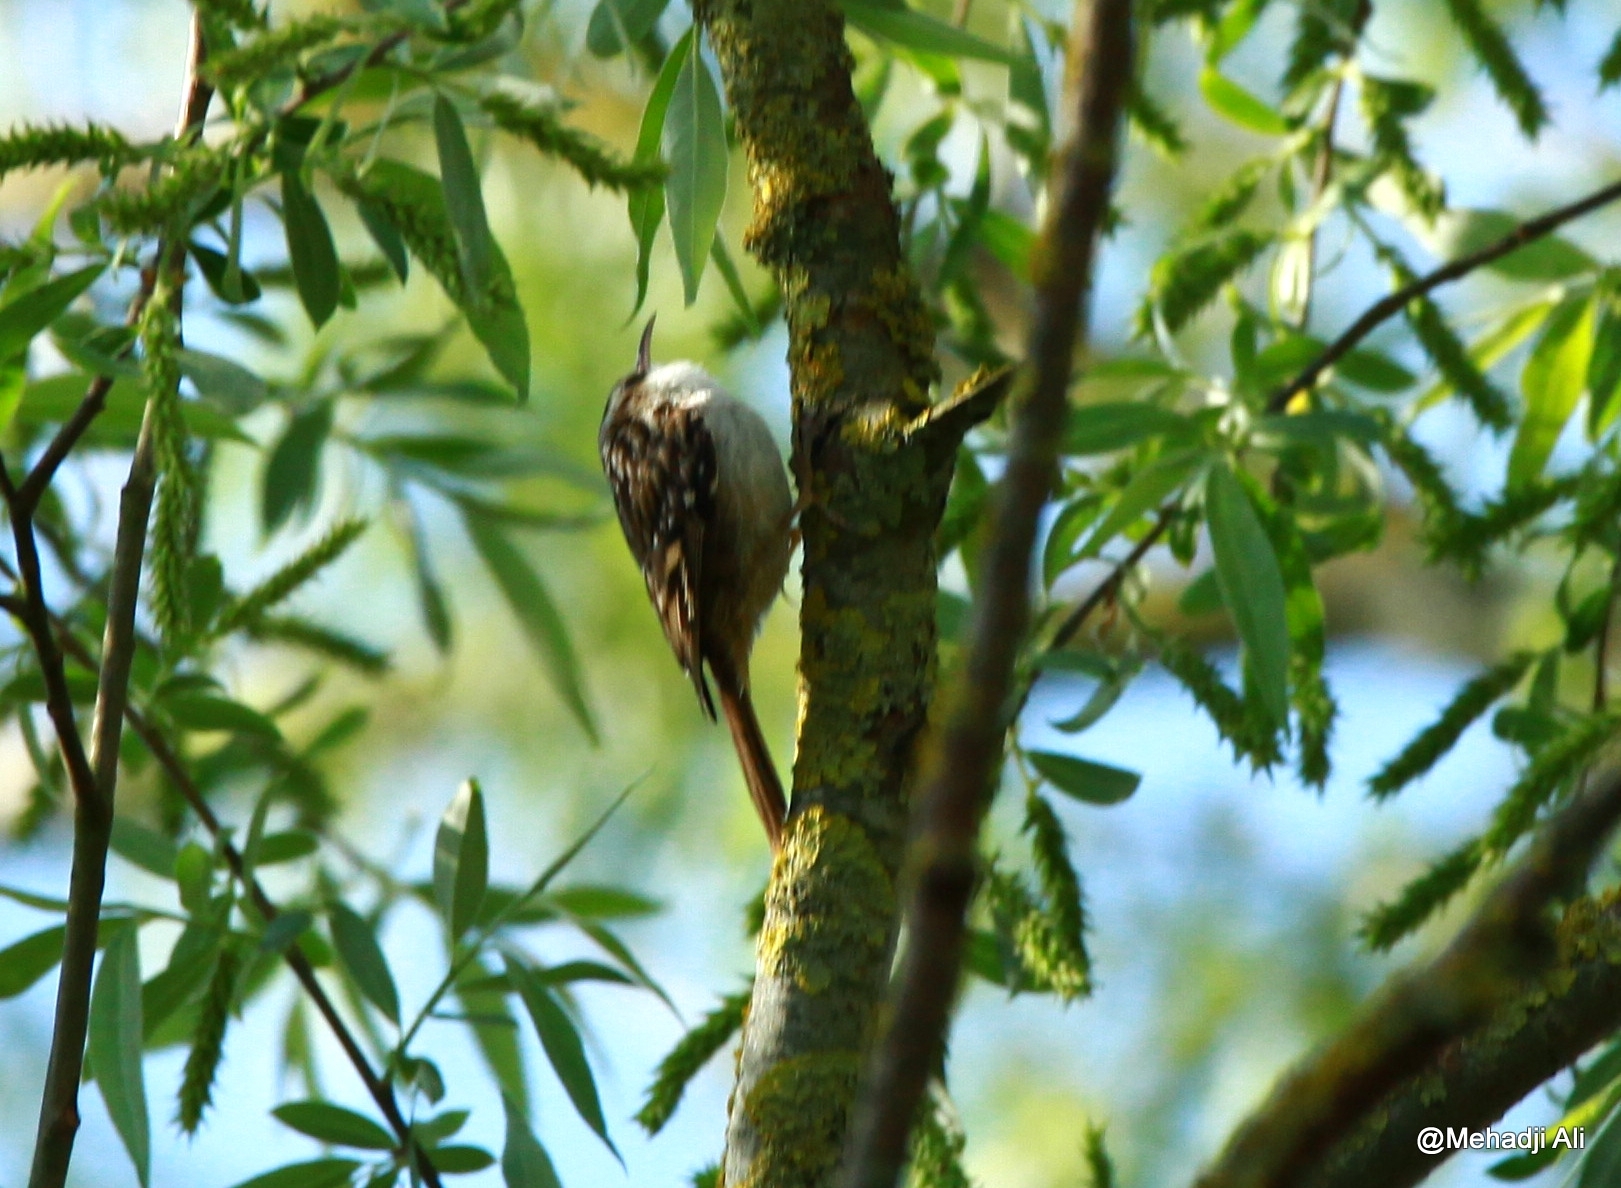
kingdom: Animalia
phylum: Chordata
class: Aves
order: Passeriformes
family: Certhiidae
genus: Certhia
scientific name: Certhia brachydactyla
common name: Short-toed treecreeper
